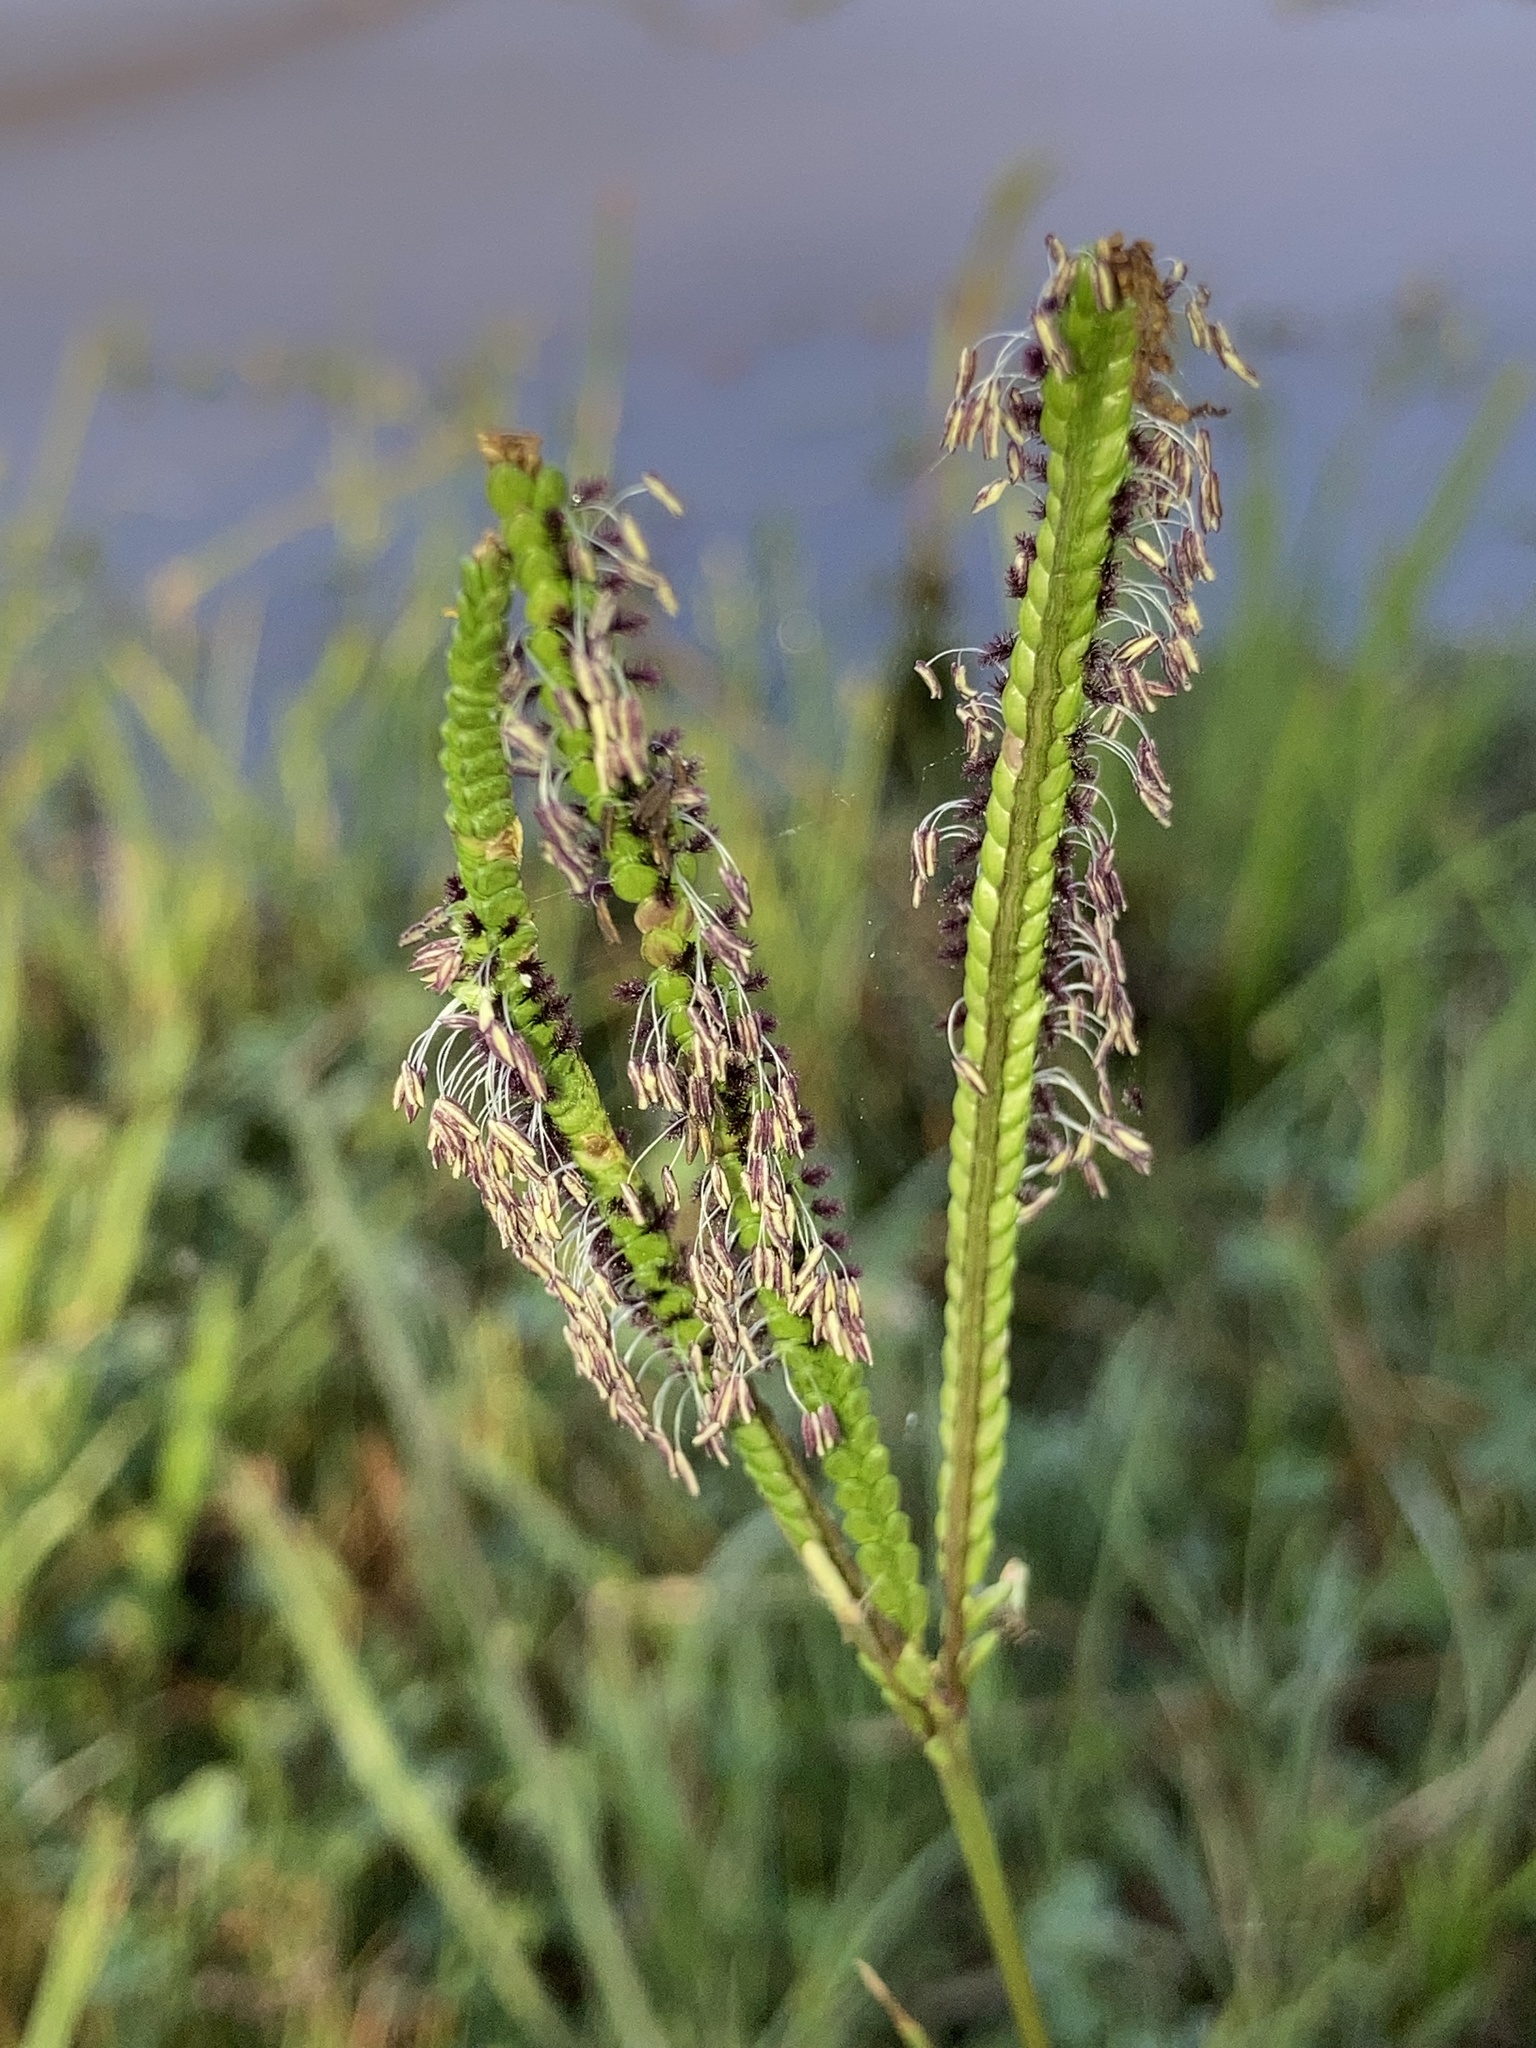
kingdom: Plantae
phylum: Tracheophyta
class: Liliopsida
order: Poales
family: Poaceae
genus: Paspalum
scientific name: Paspalum notatum
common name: Bahiagrass
